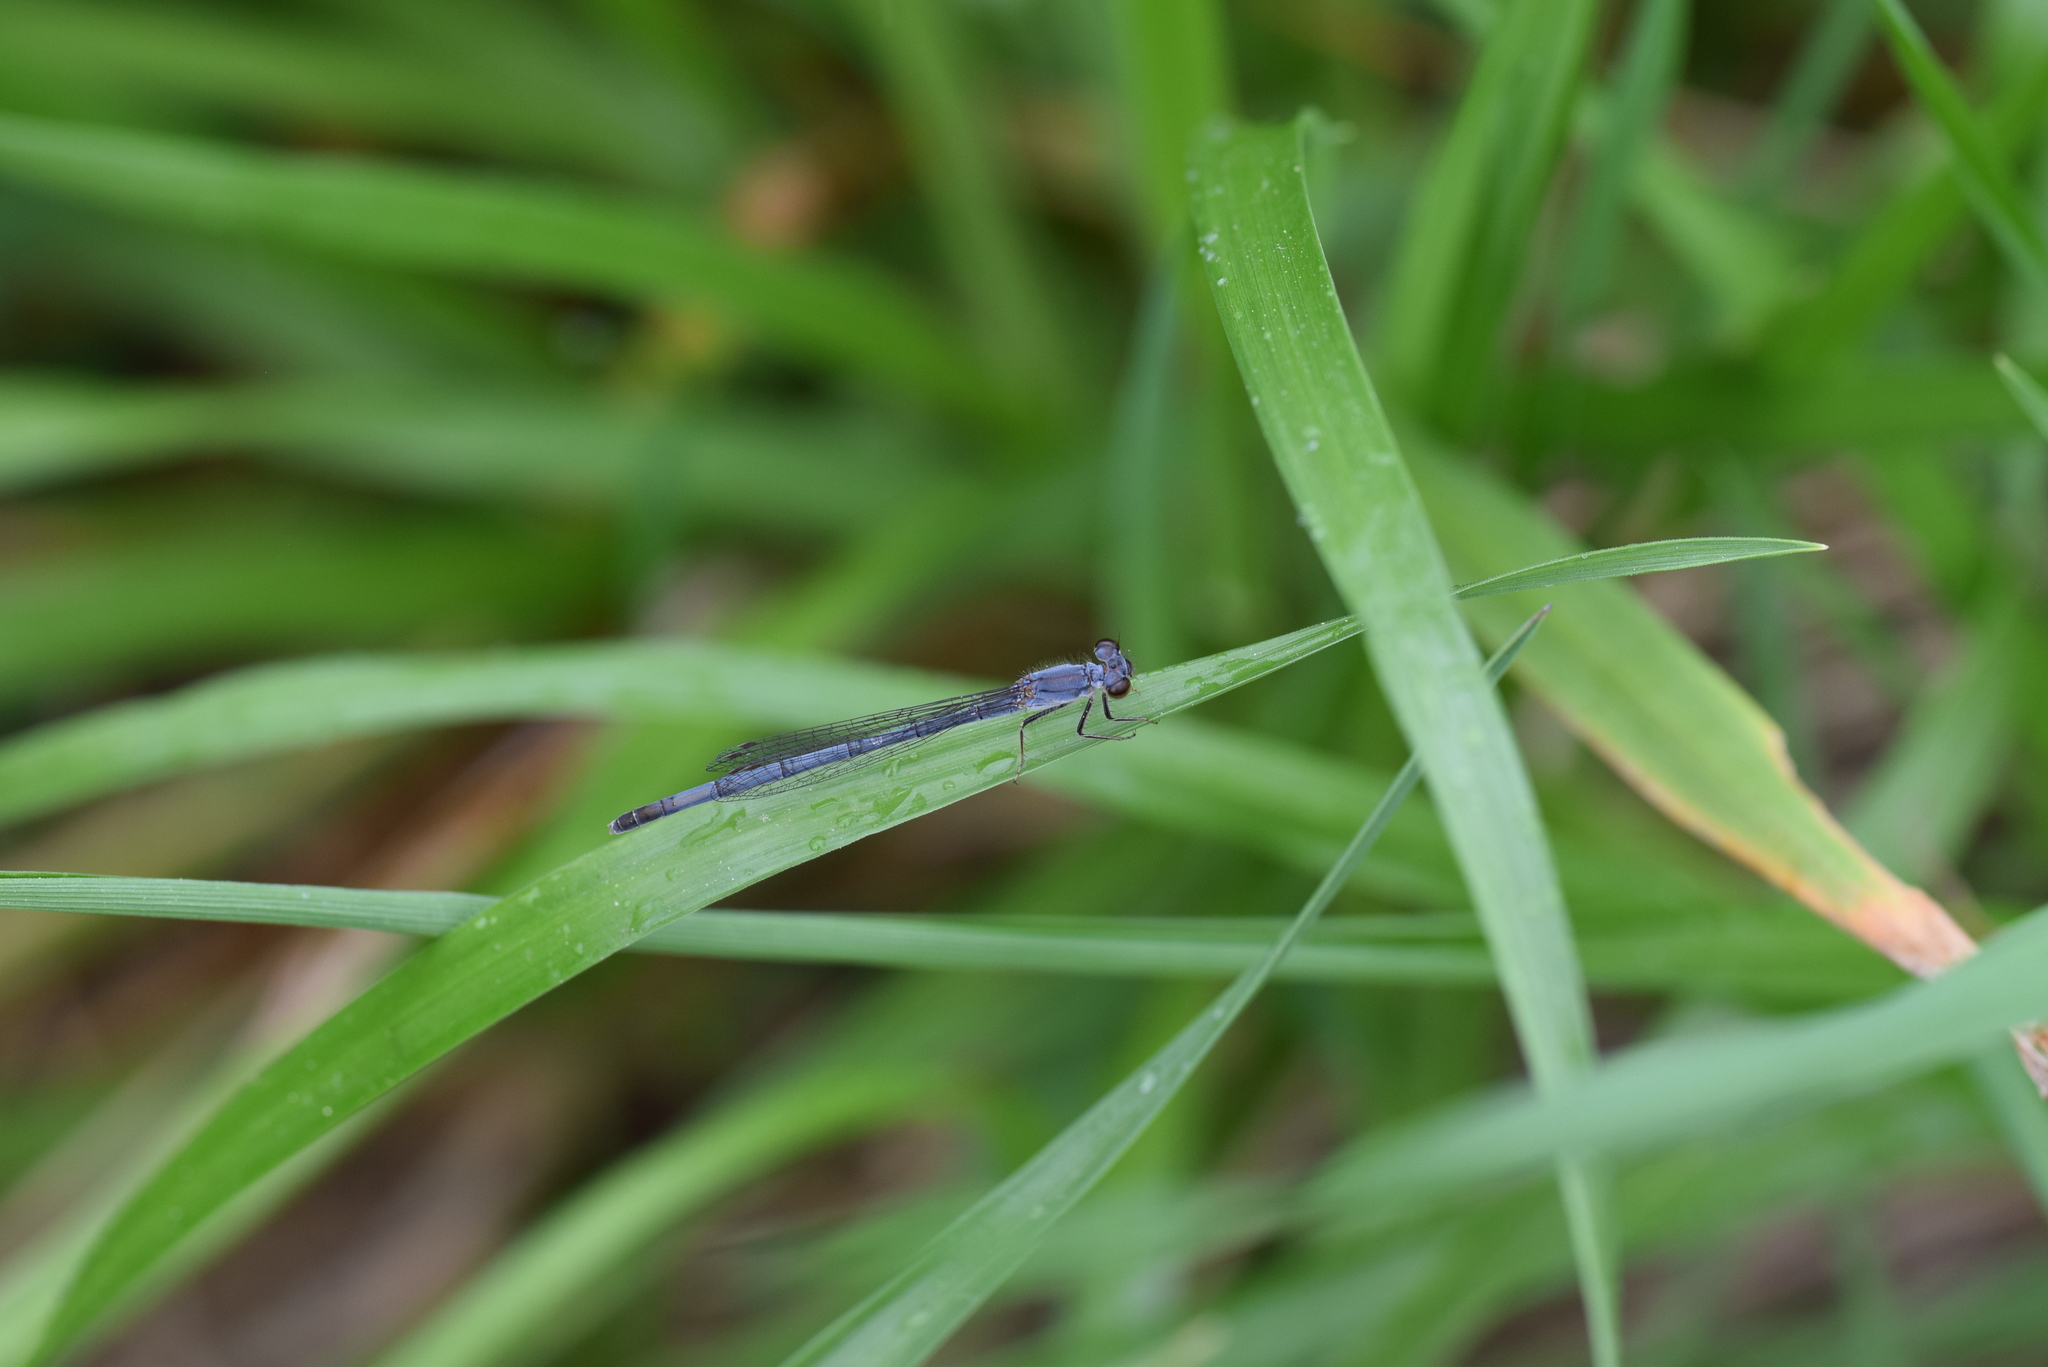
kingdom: Animalia
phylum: Arthropoda
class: Insecta
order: Odonata
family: Coenagrionidae
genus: Ischnura
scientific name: Ischnura posita
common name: Fragile forktail
